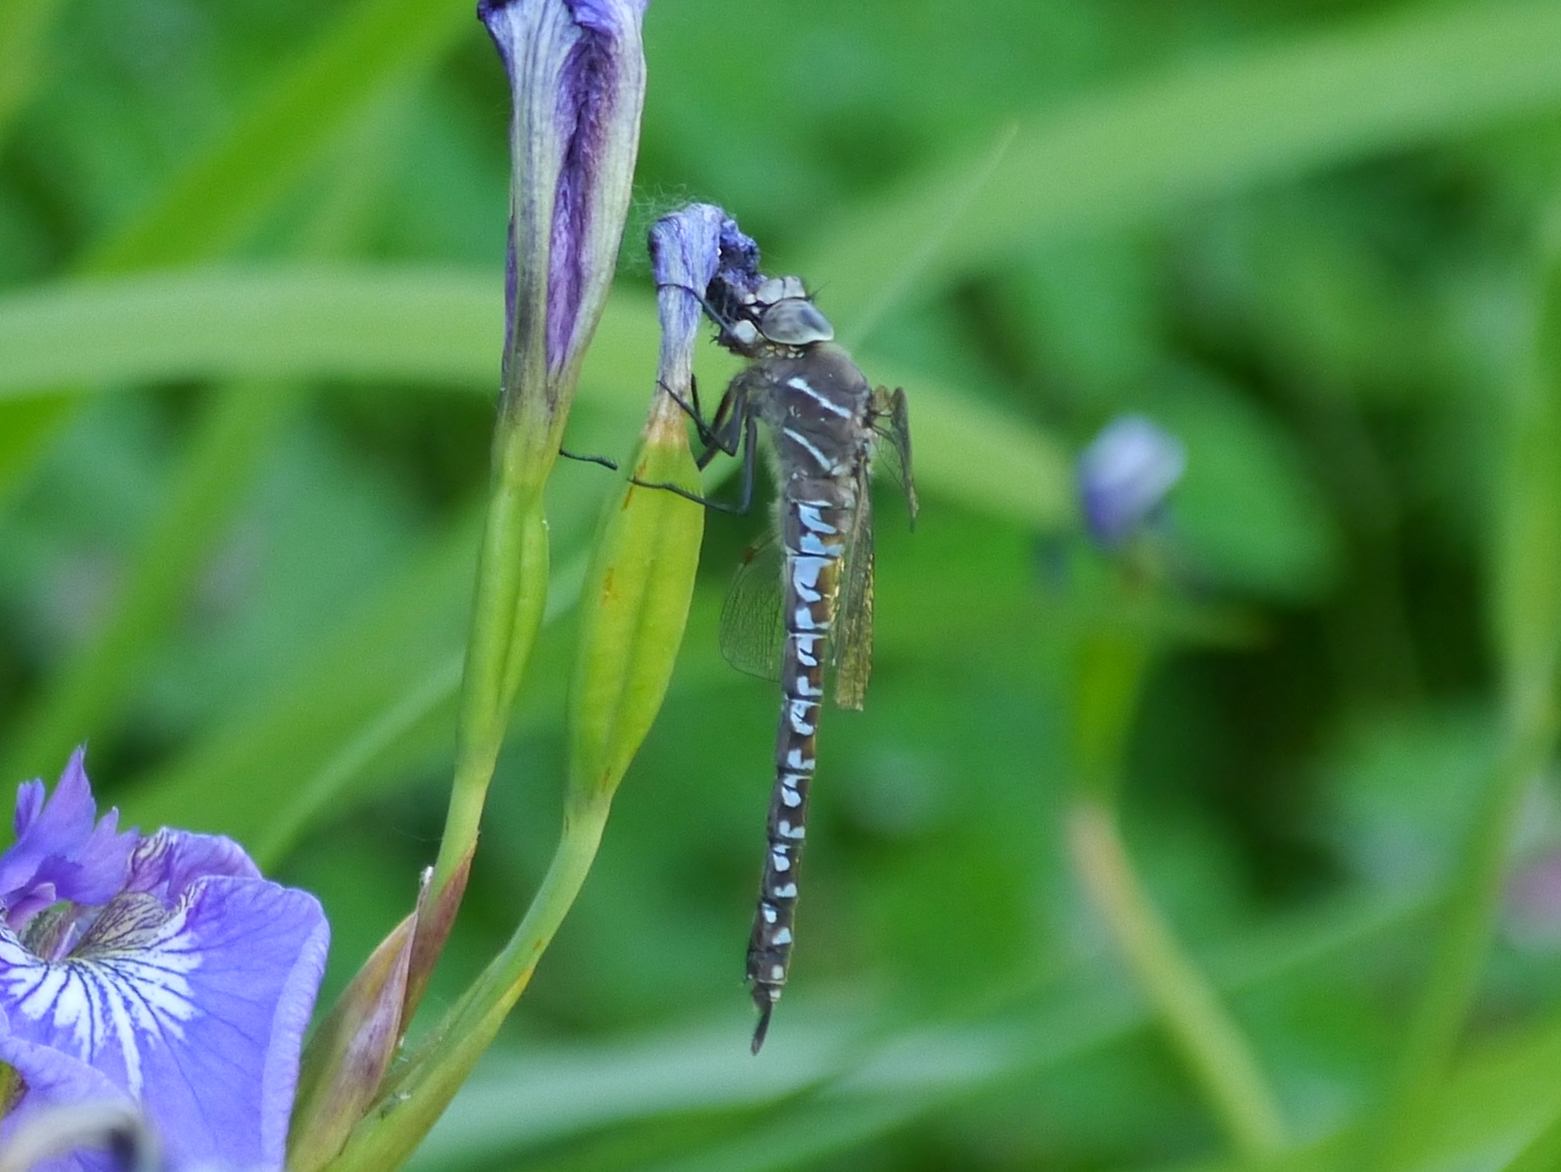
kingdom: Animalia
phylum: Arthropoda
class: Insecta
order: Odonata
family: Aeshnidae
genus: Aeshna
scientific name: Aeshna interrupta
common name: Variable darner
